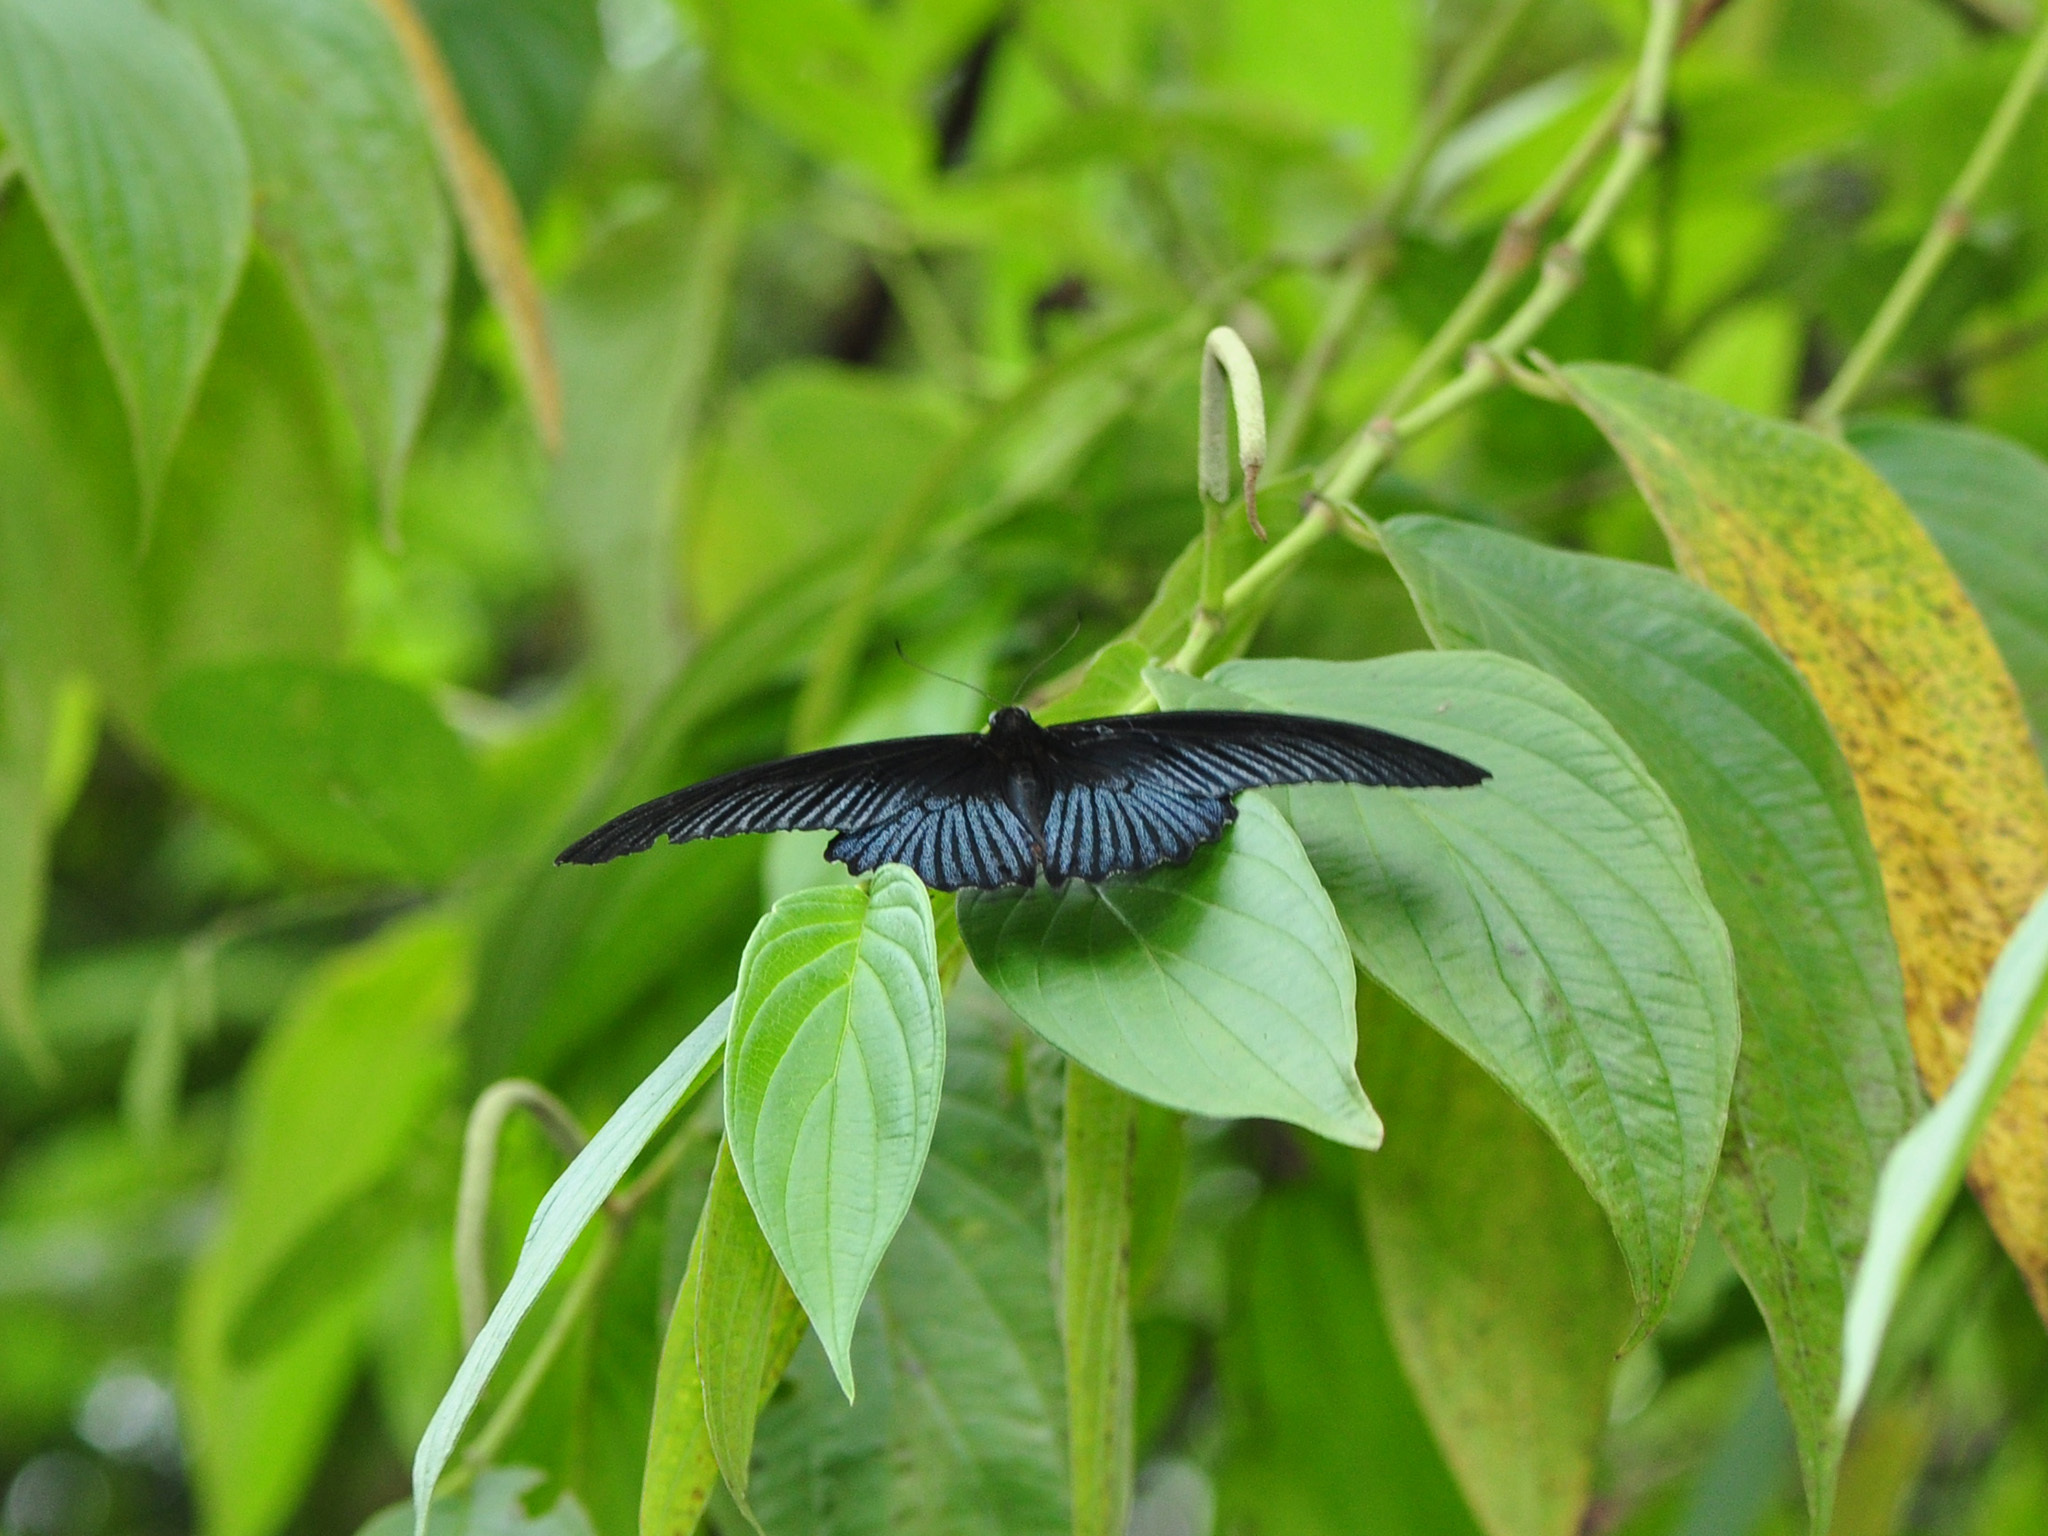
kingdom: Animalia
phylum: Arthropoda
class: Insecta
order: Lepidoptera
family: Papilionidae
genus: Papilio
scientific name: Papilio memnon
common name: Great mormon
